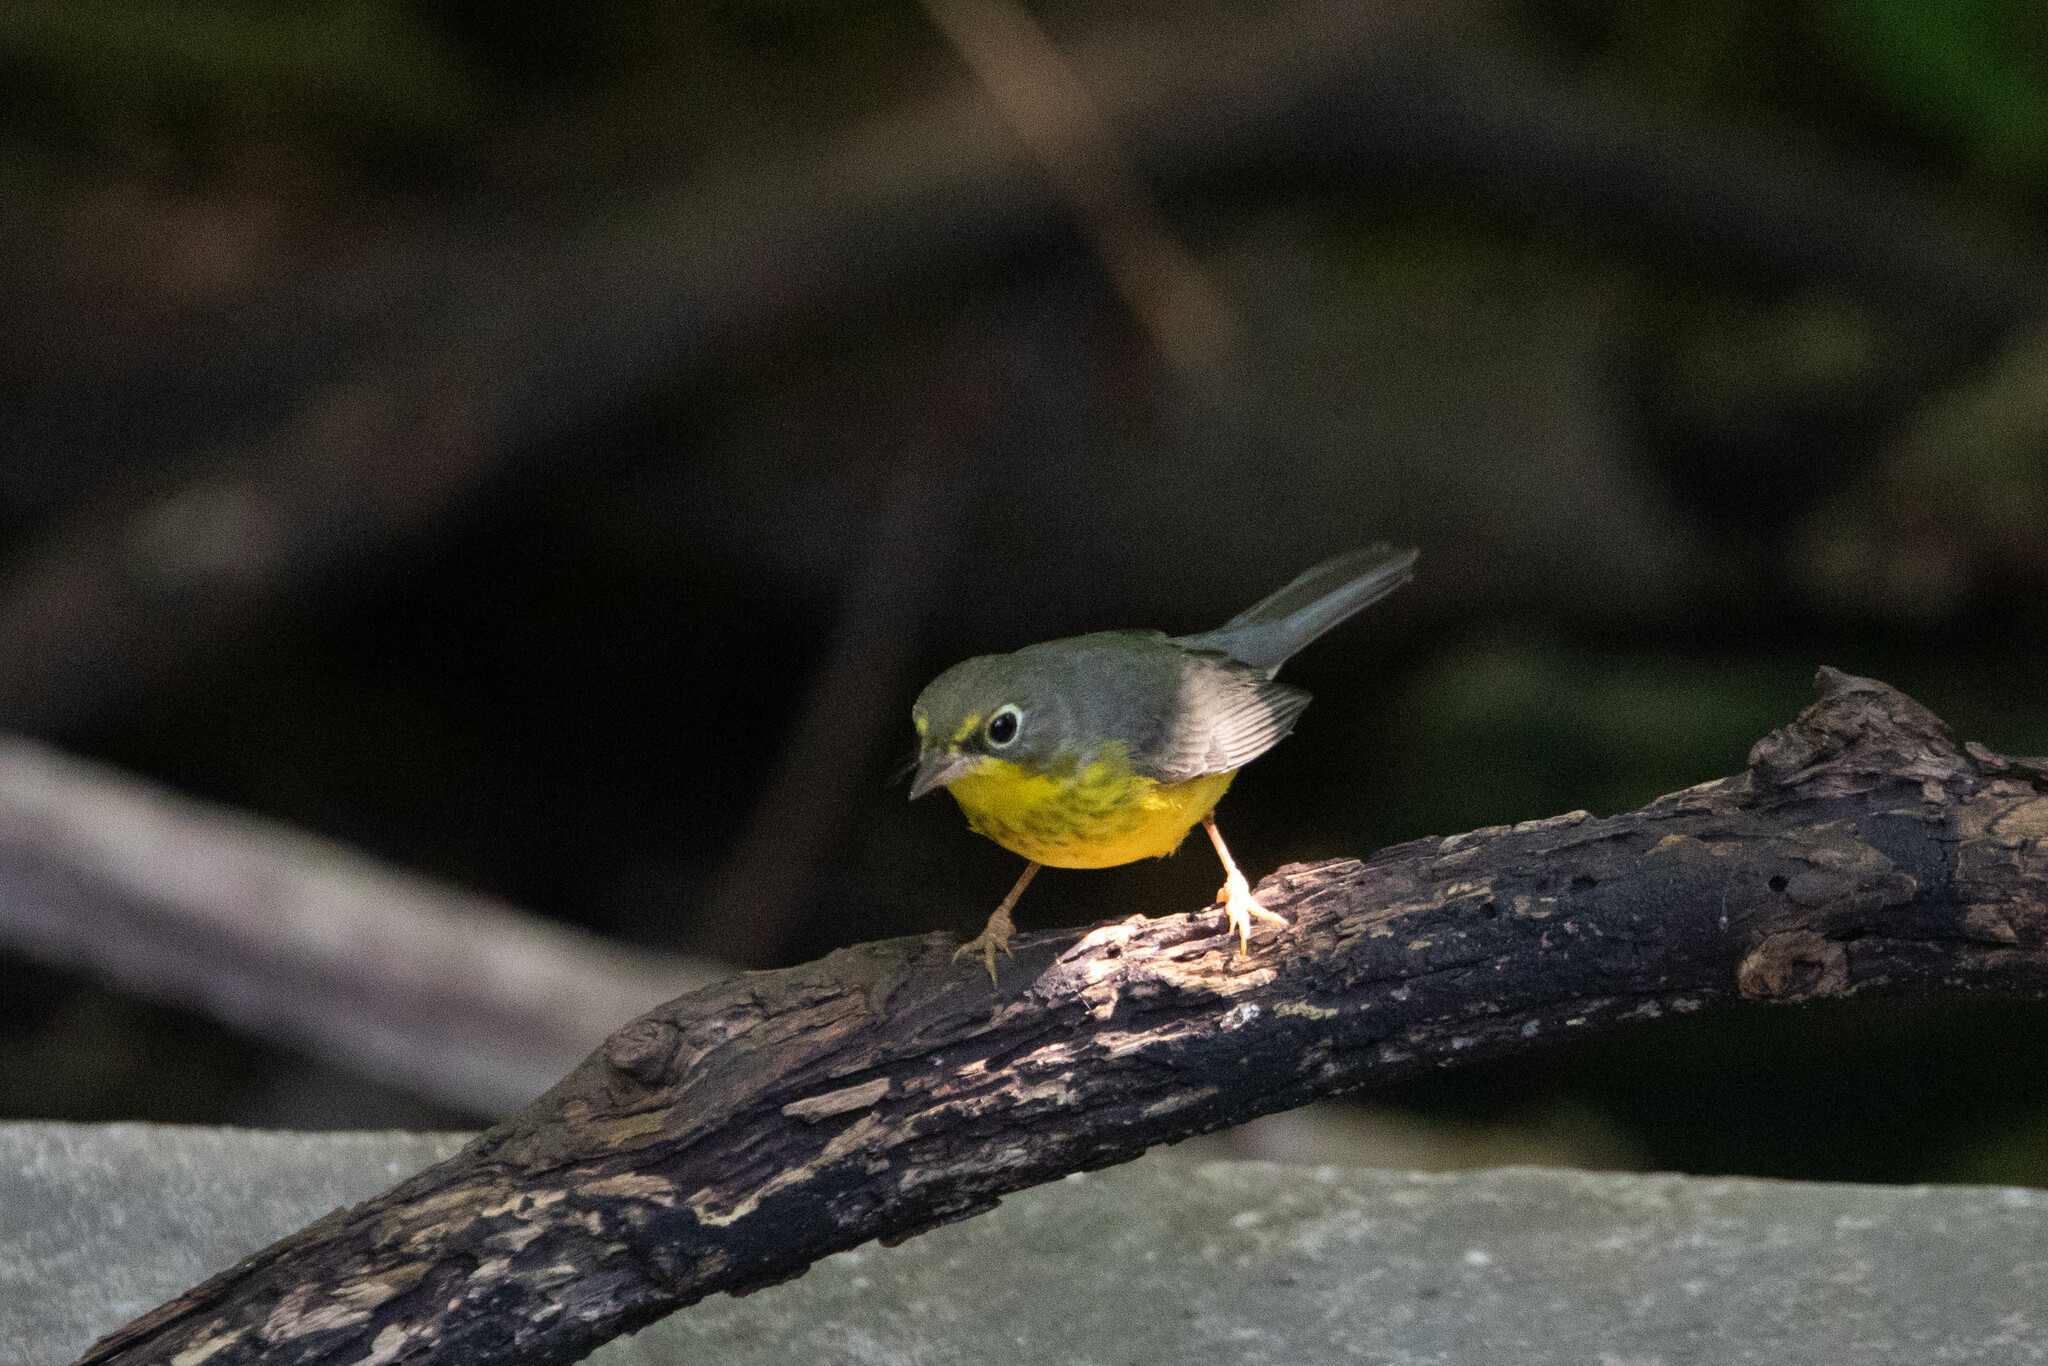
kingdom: Animalia
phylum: Chordata
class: Aves
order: Passeriformes
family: Parulidae
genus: Cardellina
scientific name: Cardellina canadensis
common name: Canada warbler
